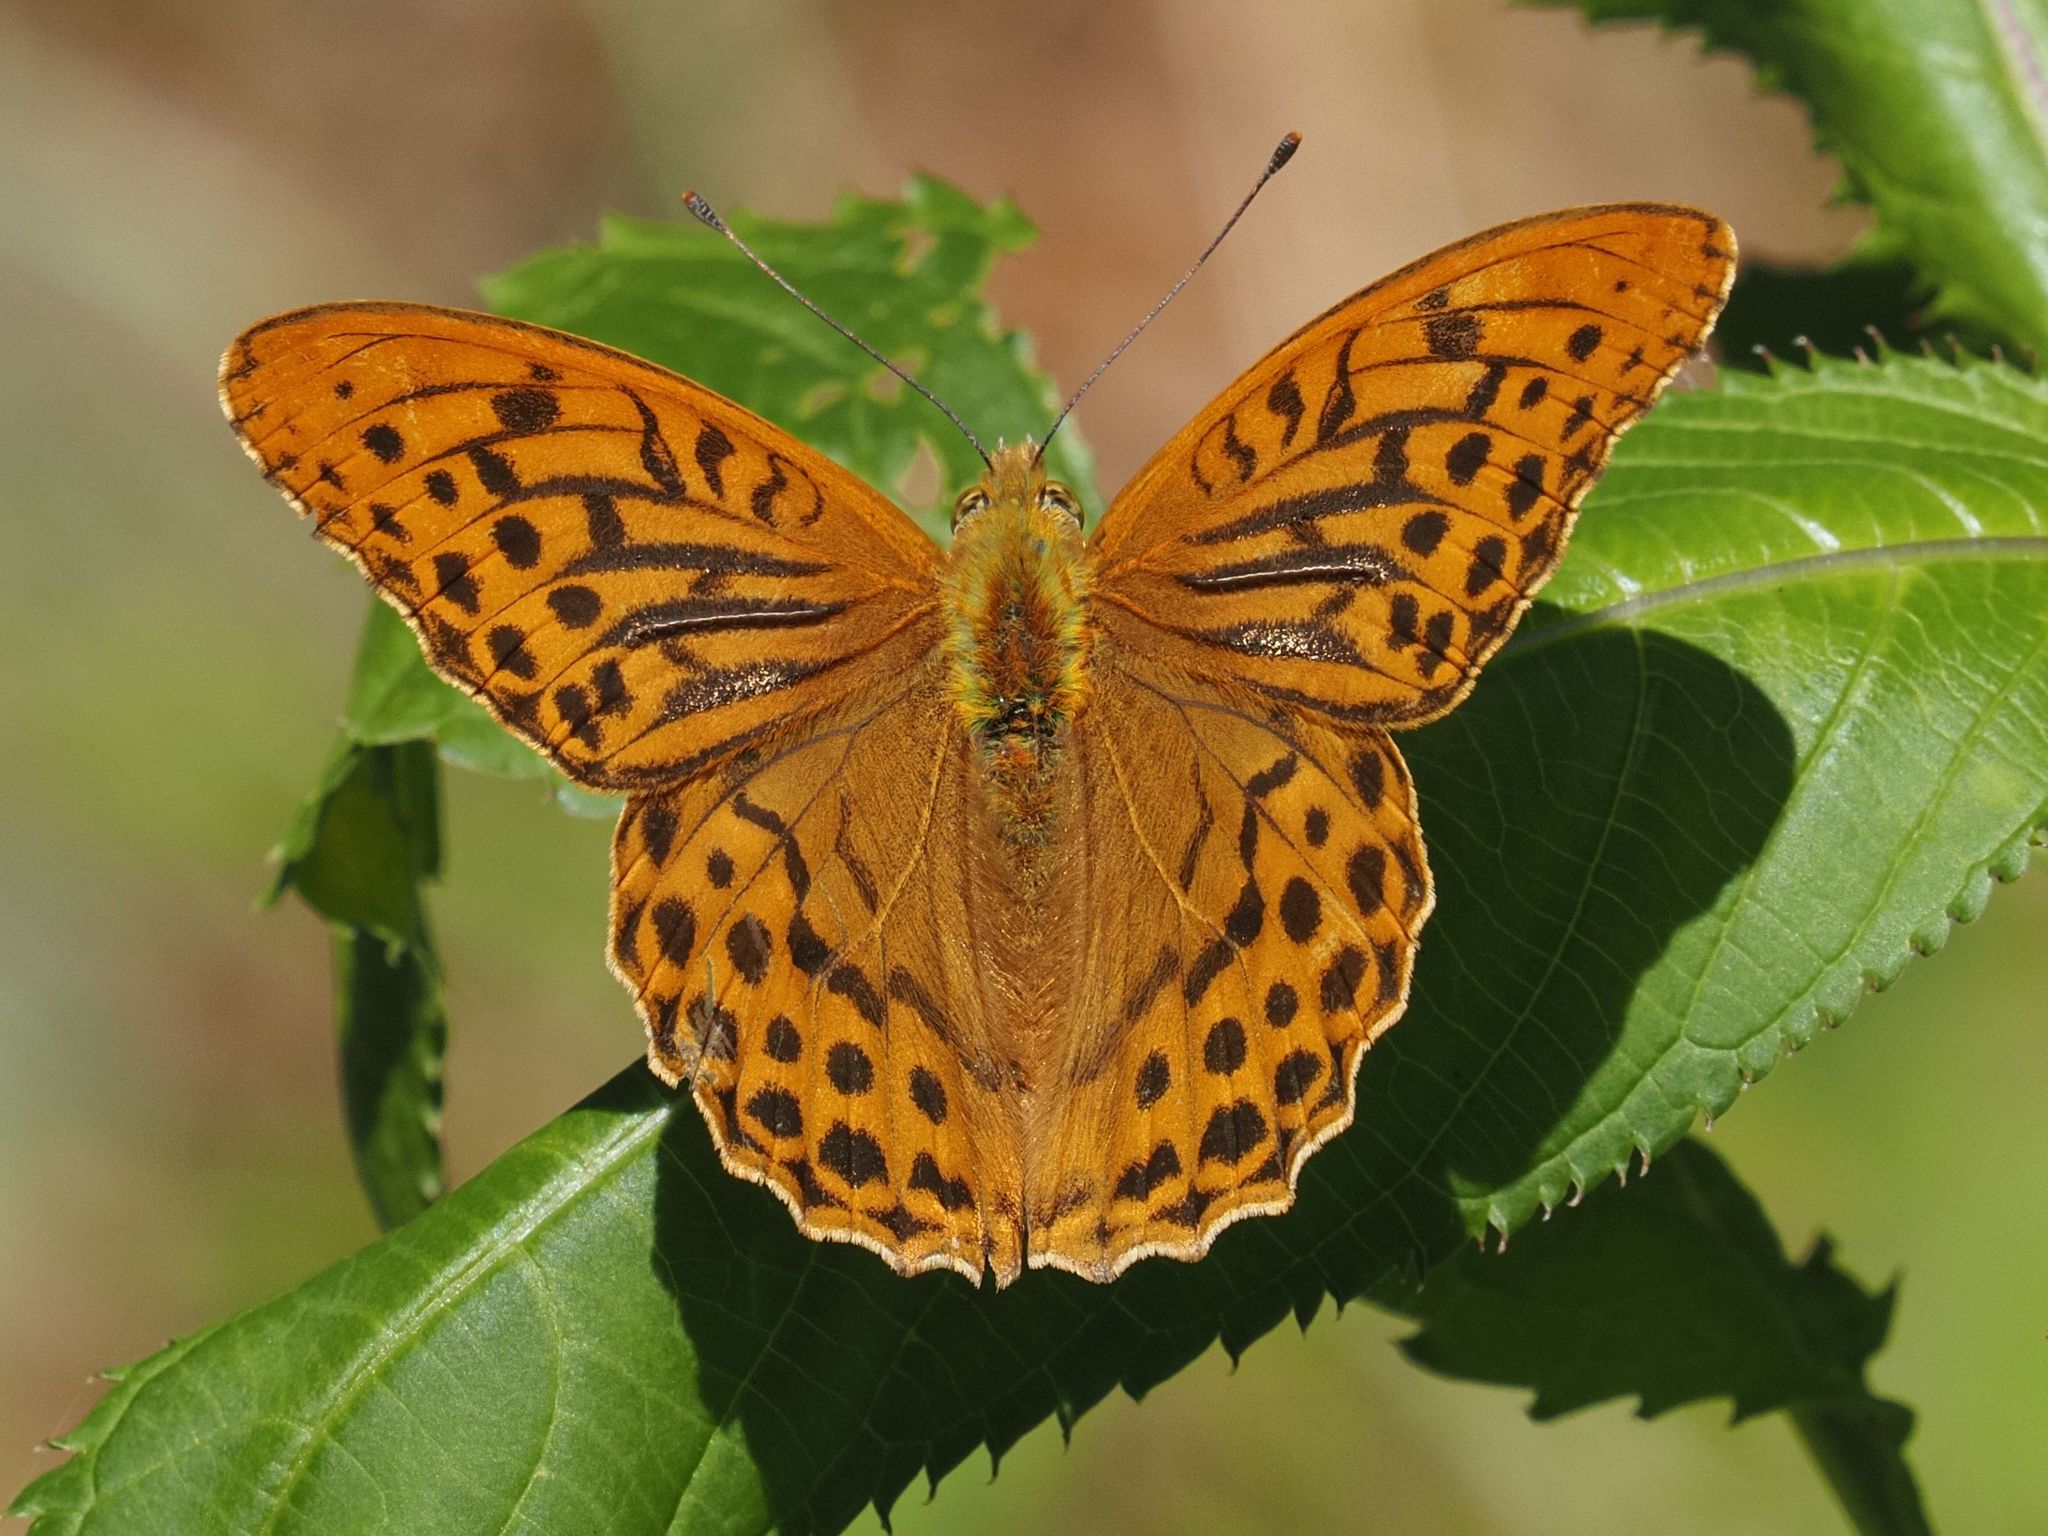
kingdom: Animalia
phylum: Arthropoda
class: Insecta
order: Lepidoptera
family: Nymphalidae
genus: Argynnis
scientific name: Argynnis paphia
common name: Silver-washed fritillary
